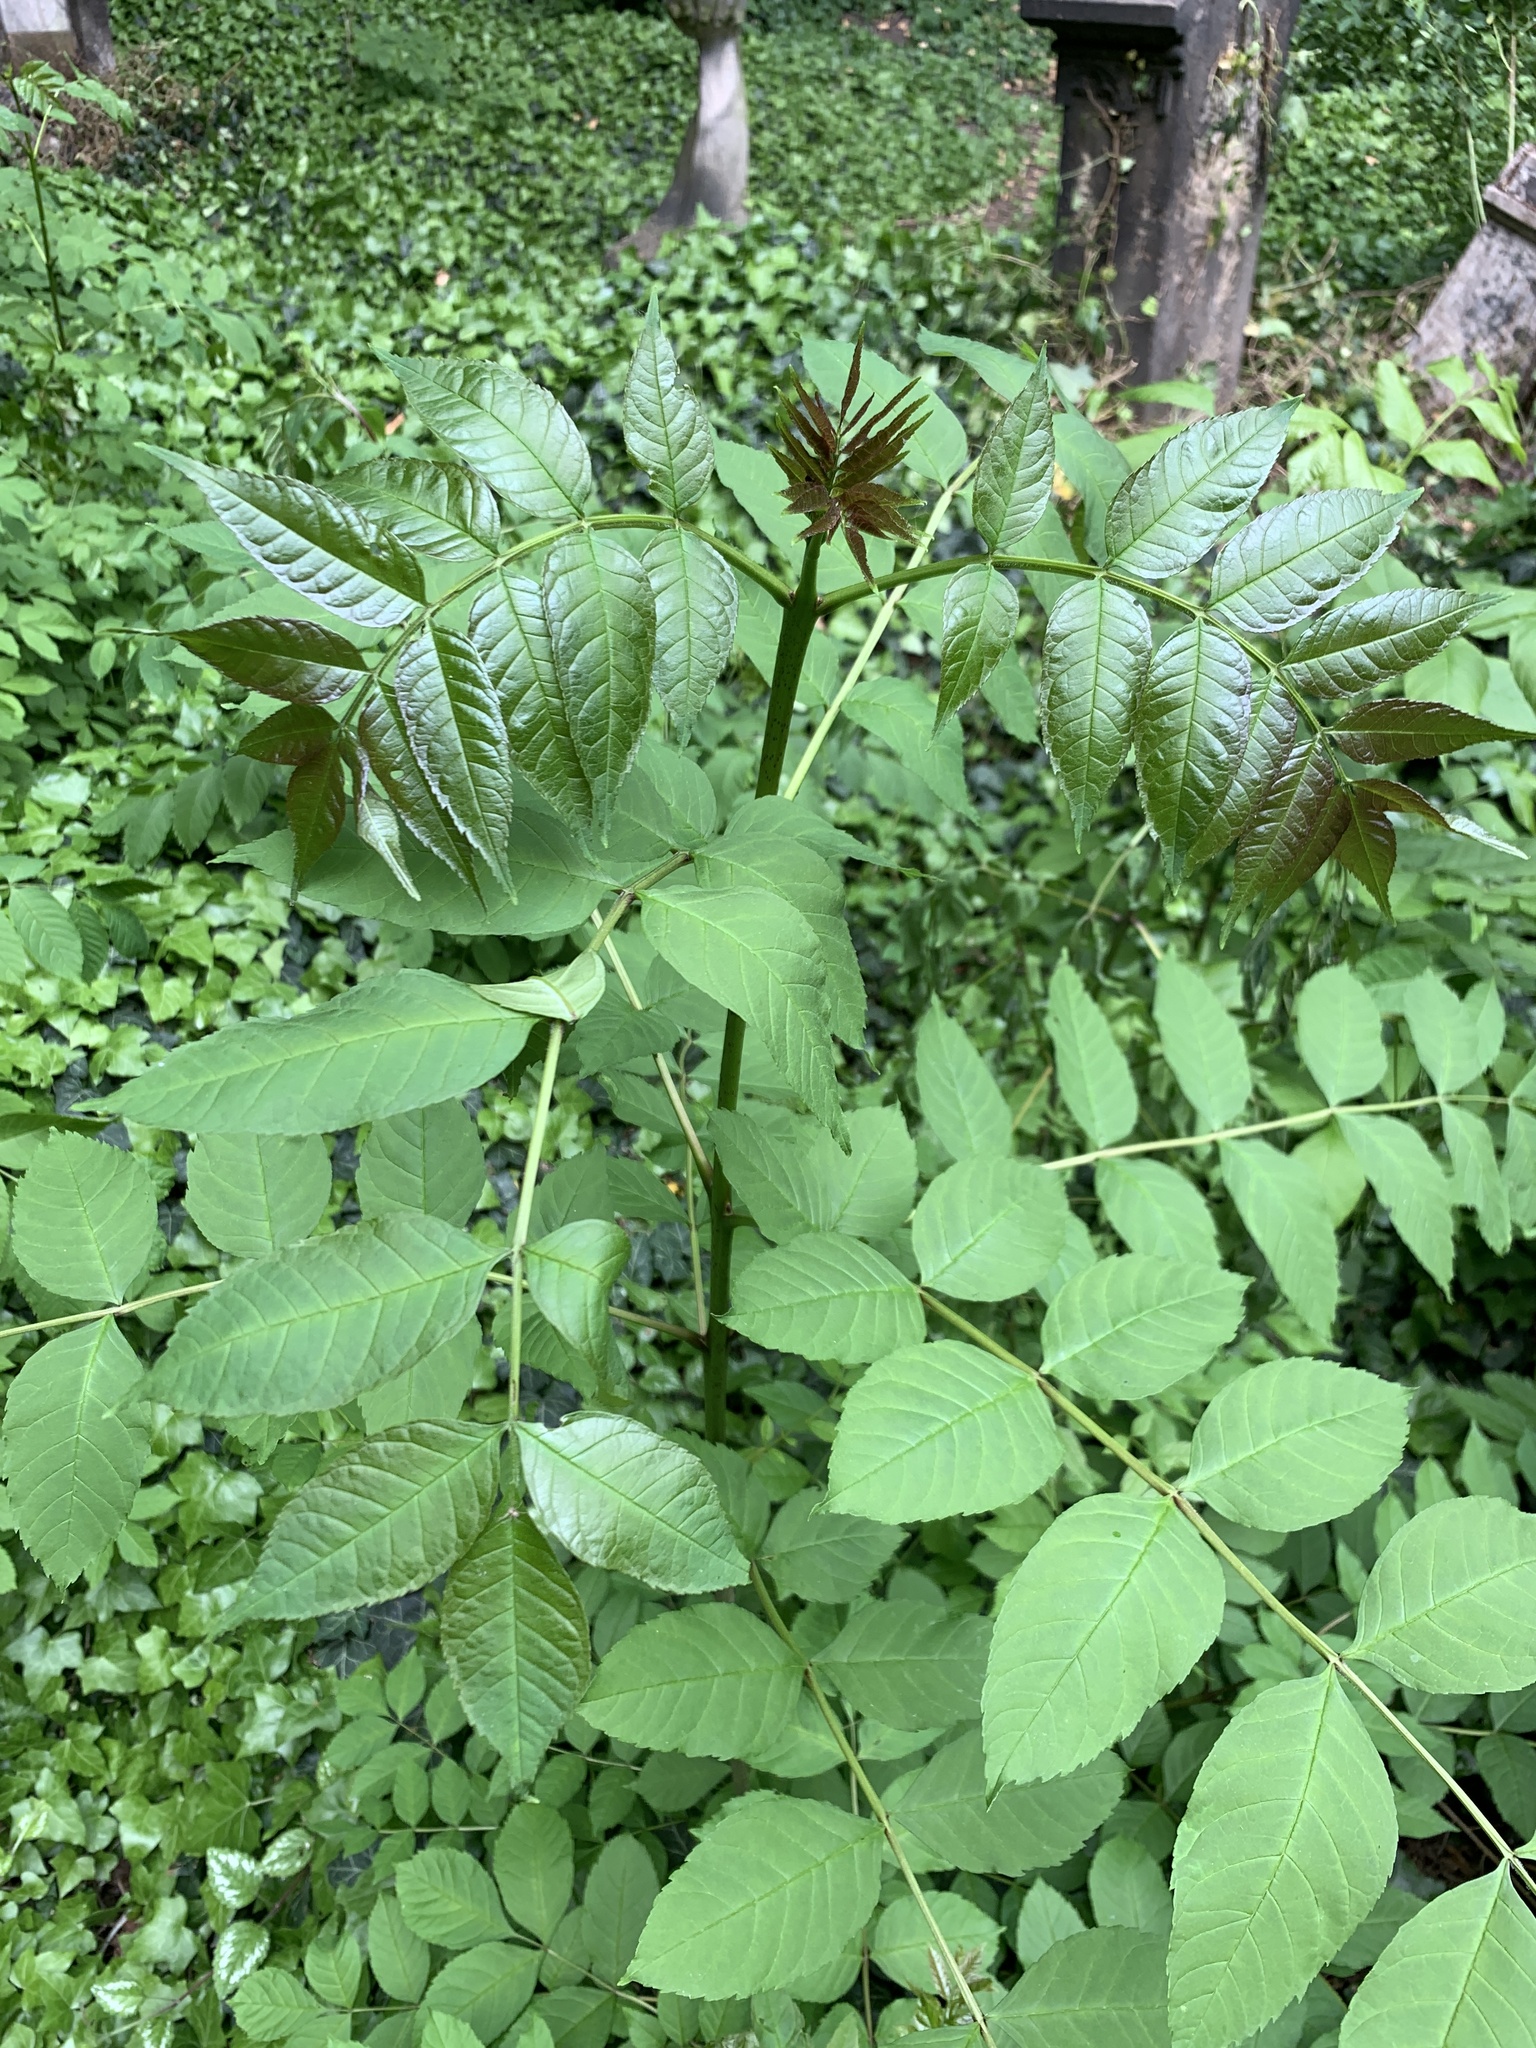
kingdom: Plantae
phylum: Tracheophyta
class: Magnoliopsida
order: Lamiales
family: Oleaceae
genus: Fraxinus
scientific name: Fraxinus excelsior
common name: European ash
